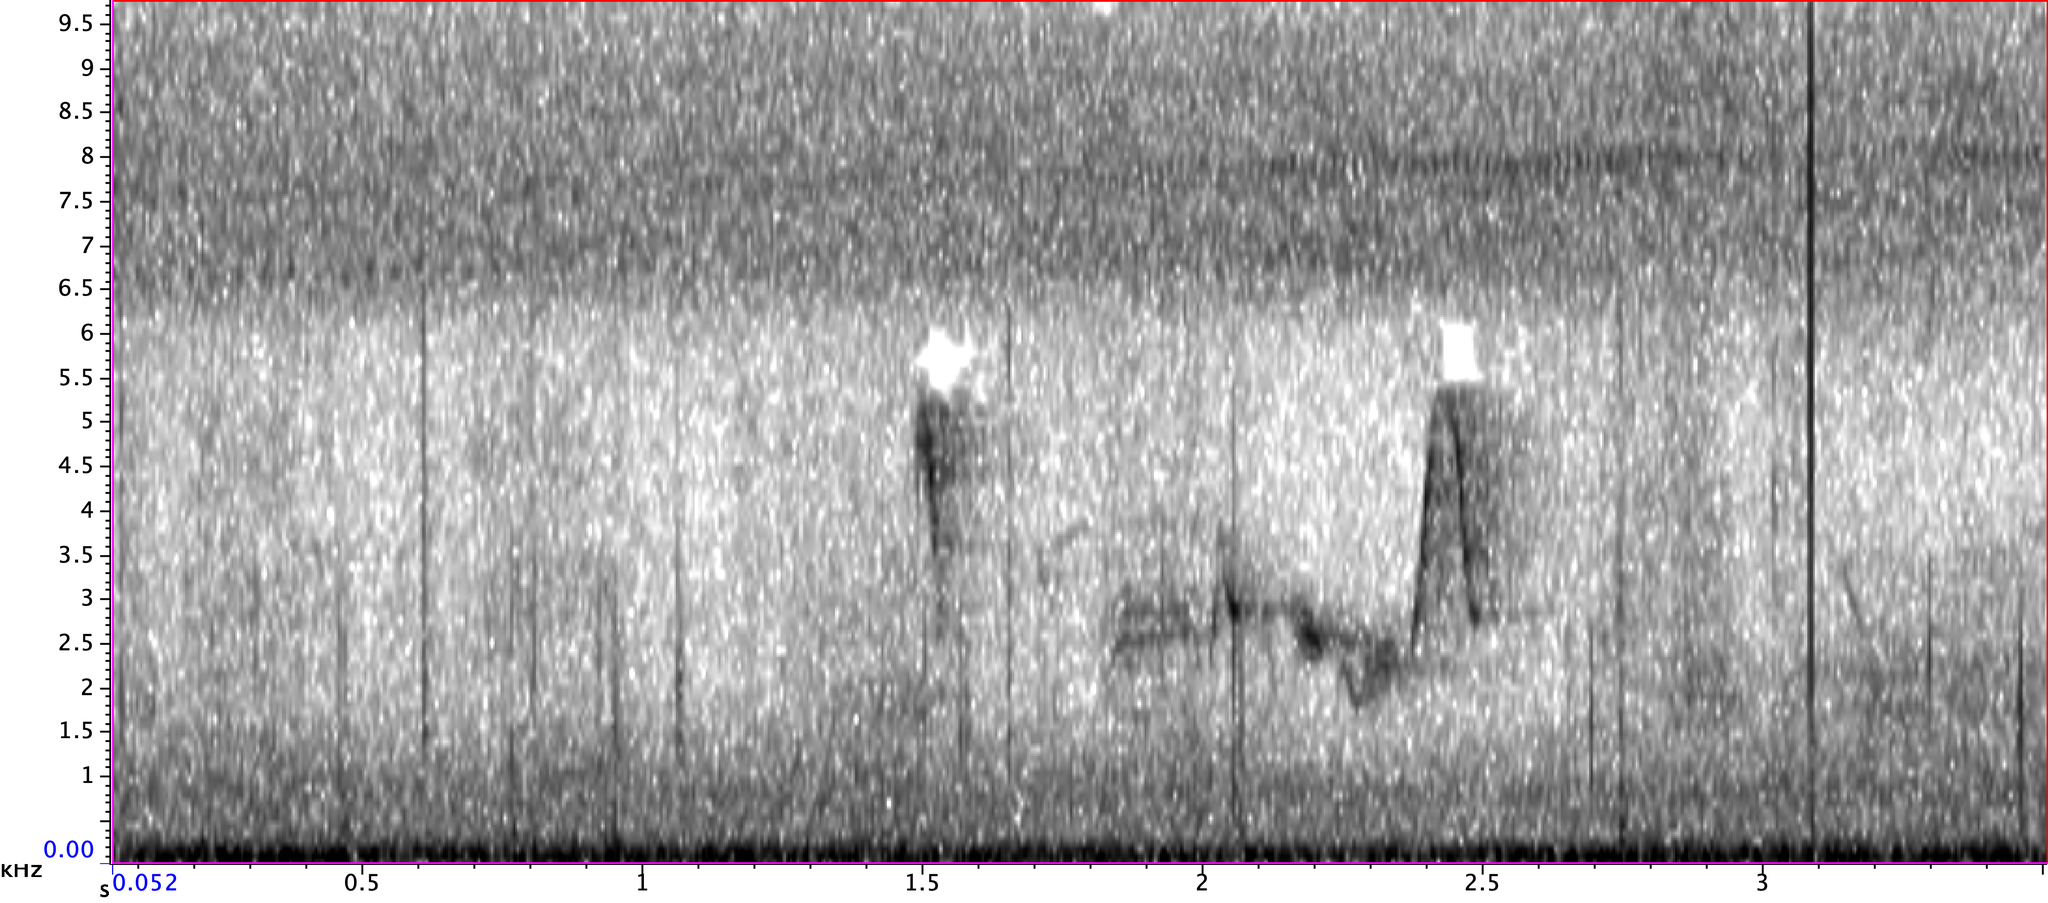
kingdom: Animalia
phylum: Chordata
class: Aves
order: Passeriformes
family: Vireonidae
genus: Vireo
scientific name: Vireo griseus
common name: White-eyed vireo
